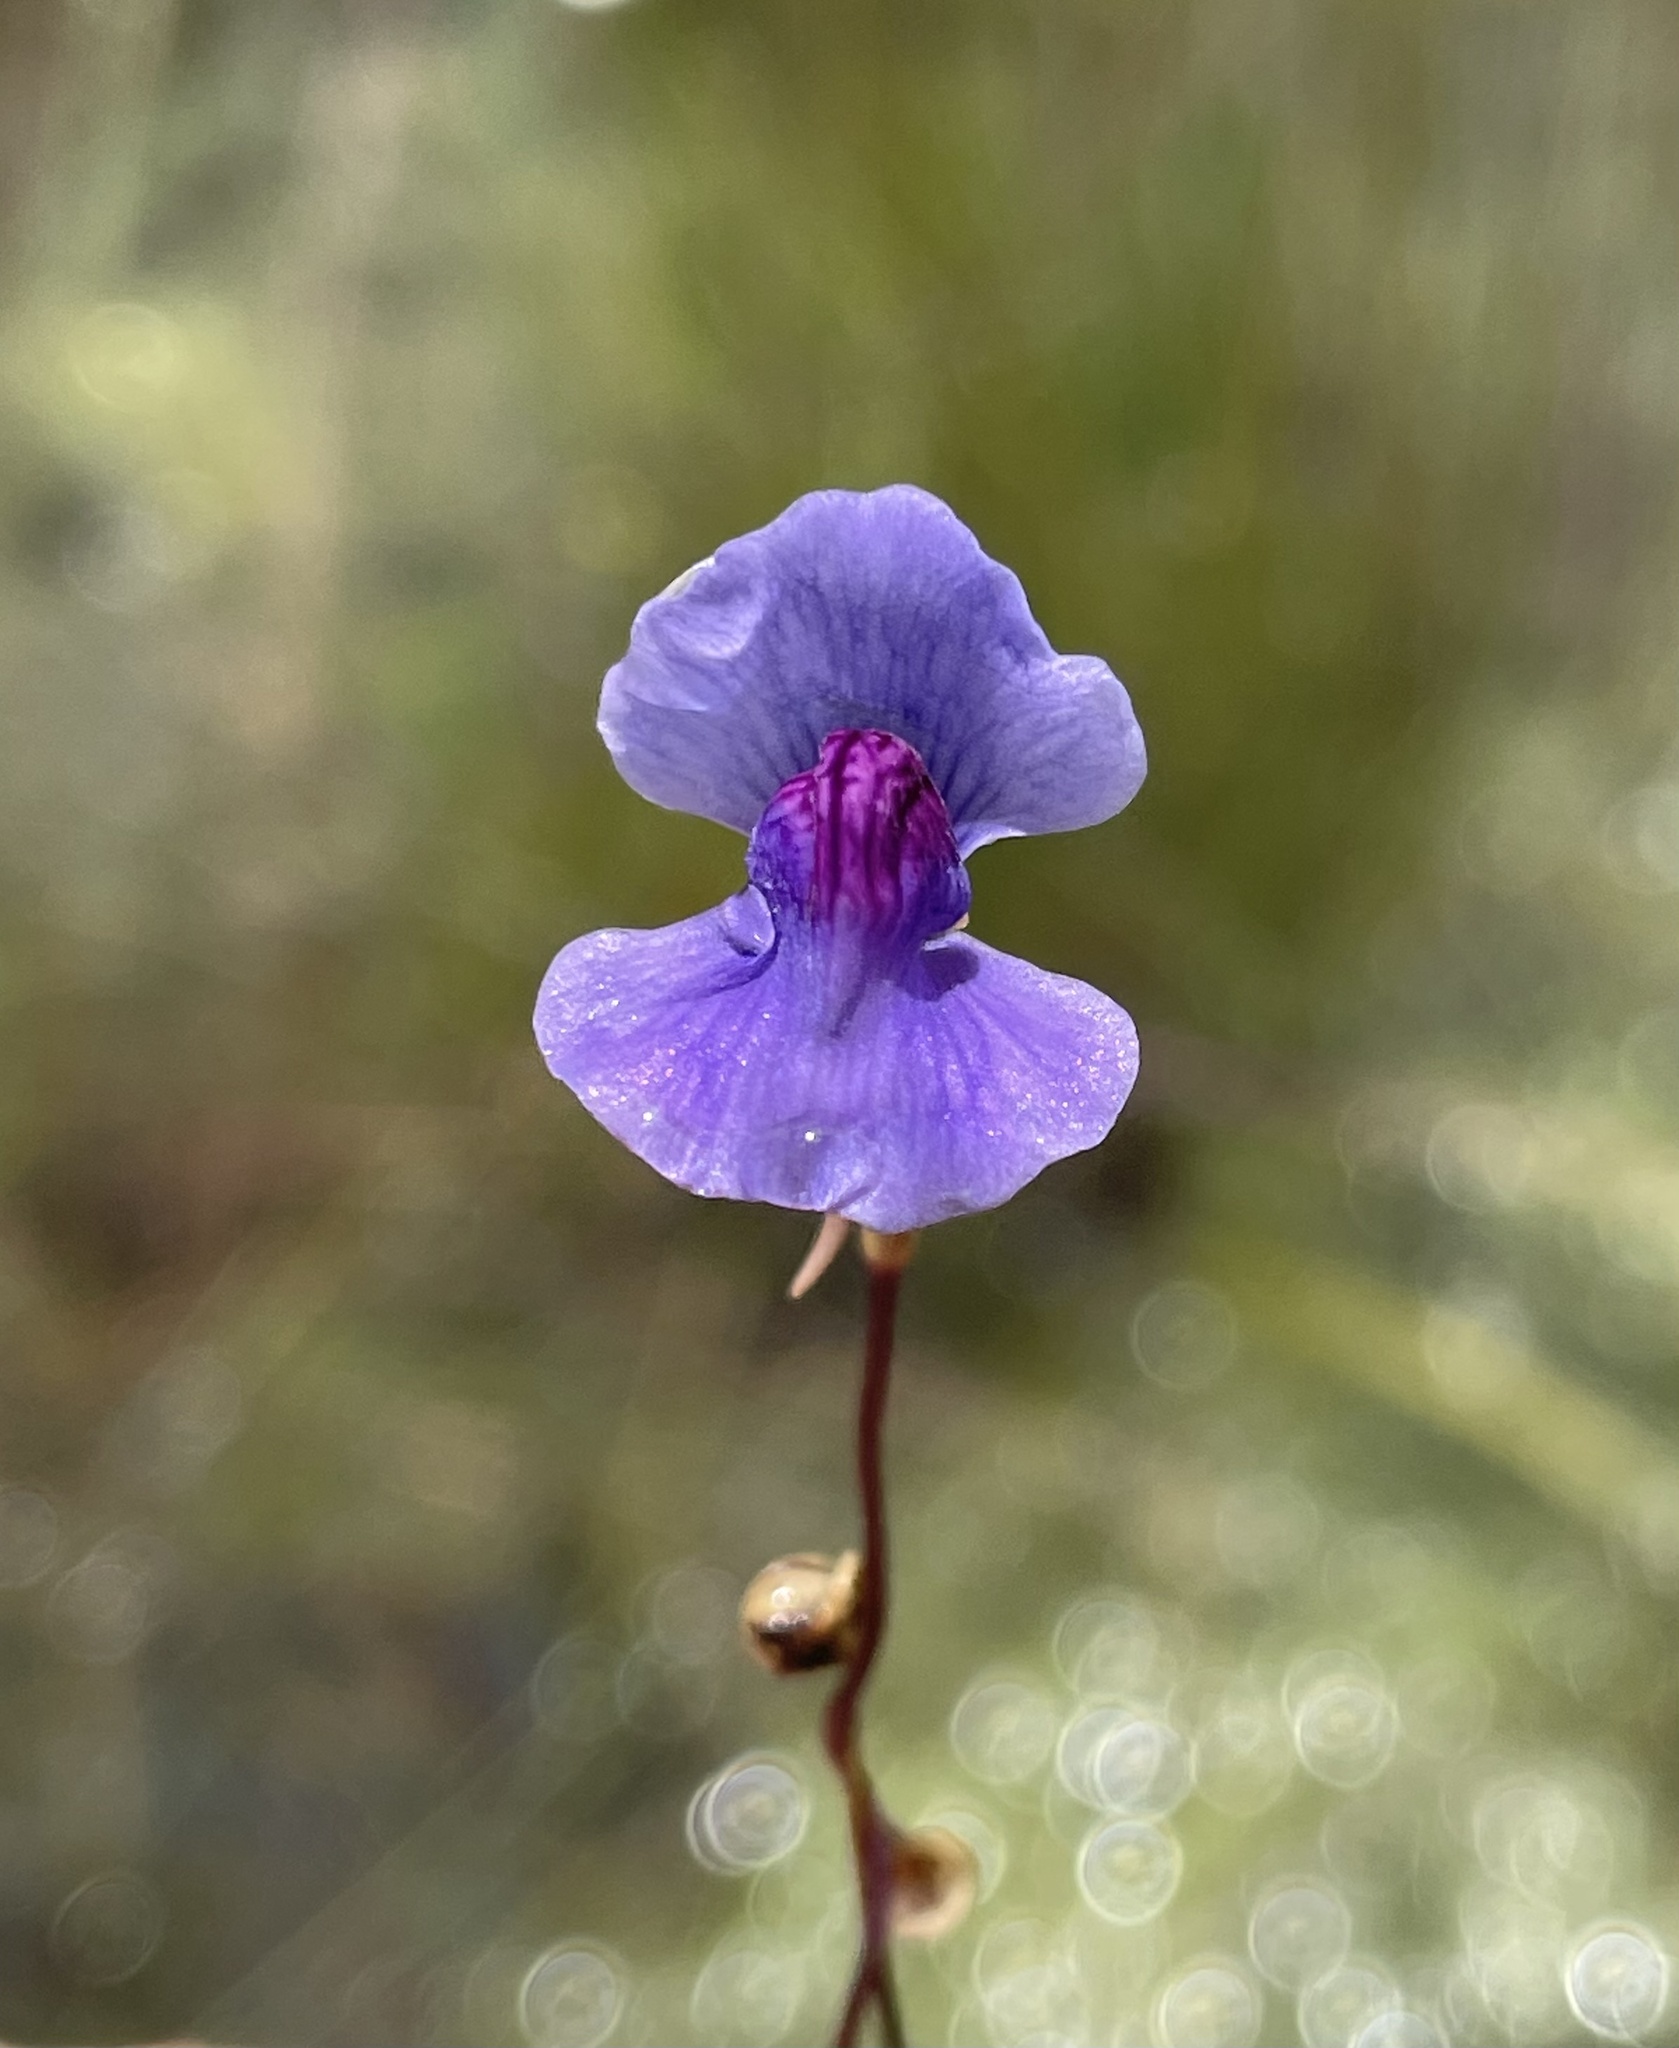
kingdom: Plantae
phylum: Tracheophyta
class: Magnoliopsida
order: Lamiales
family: Lentibulariaceae
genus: Utricularia
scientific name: Utricularia spiralis
